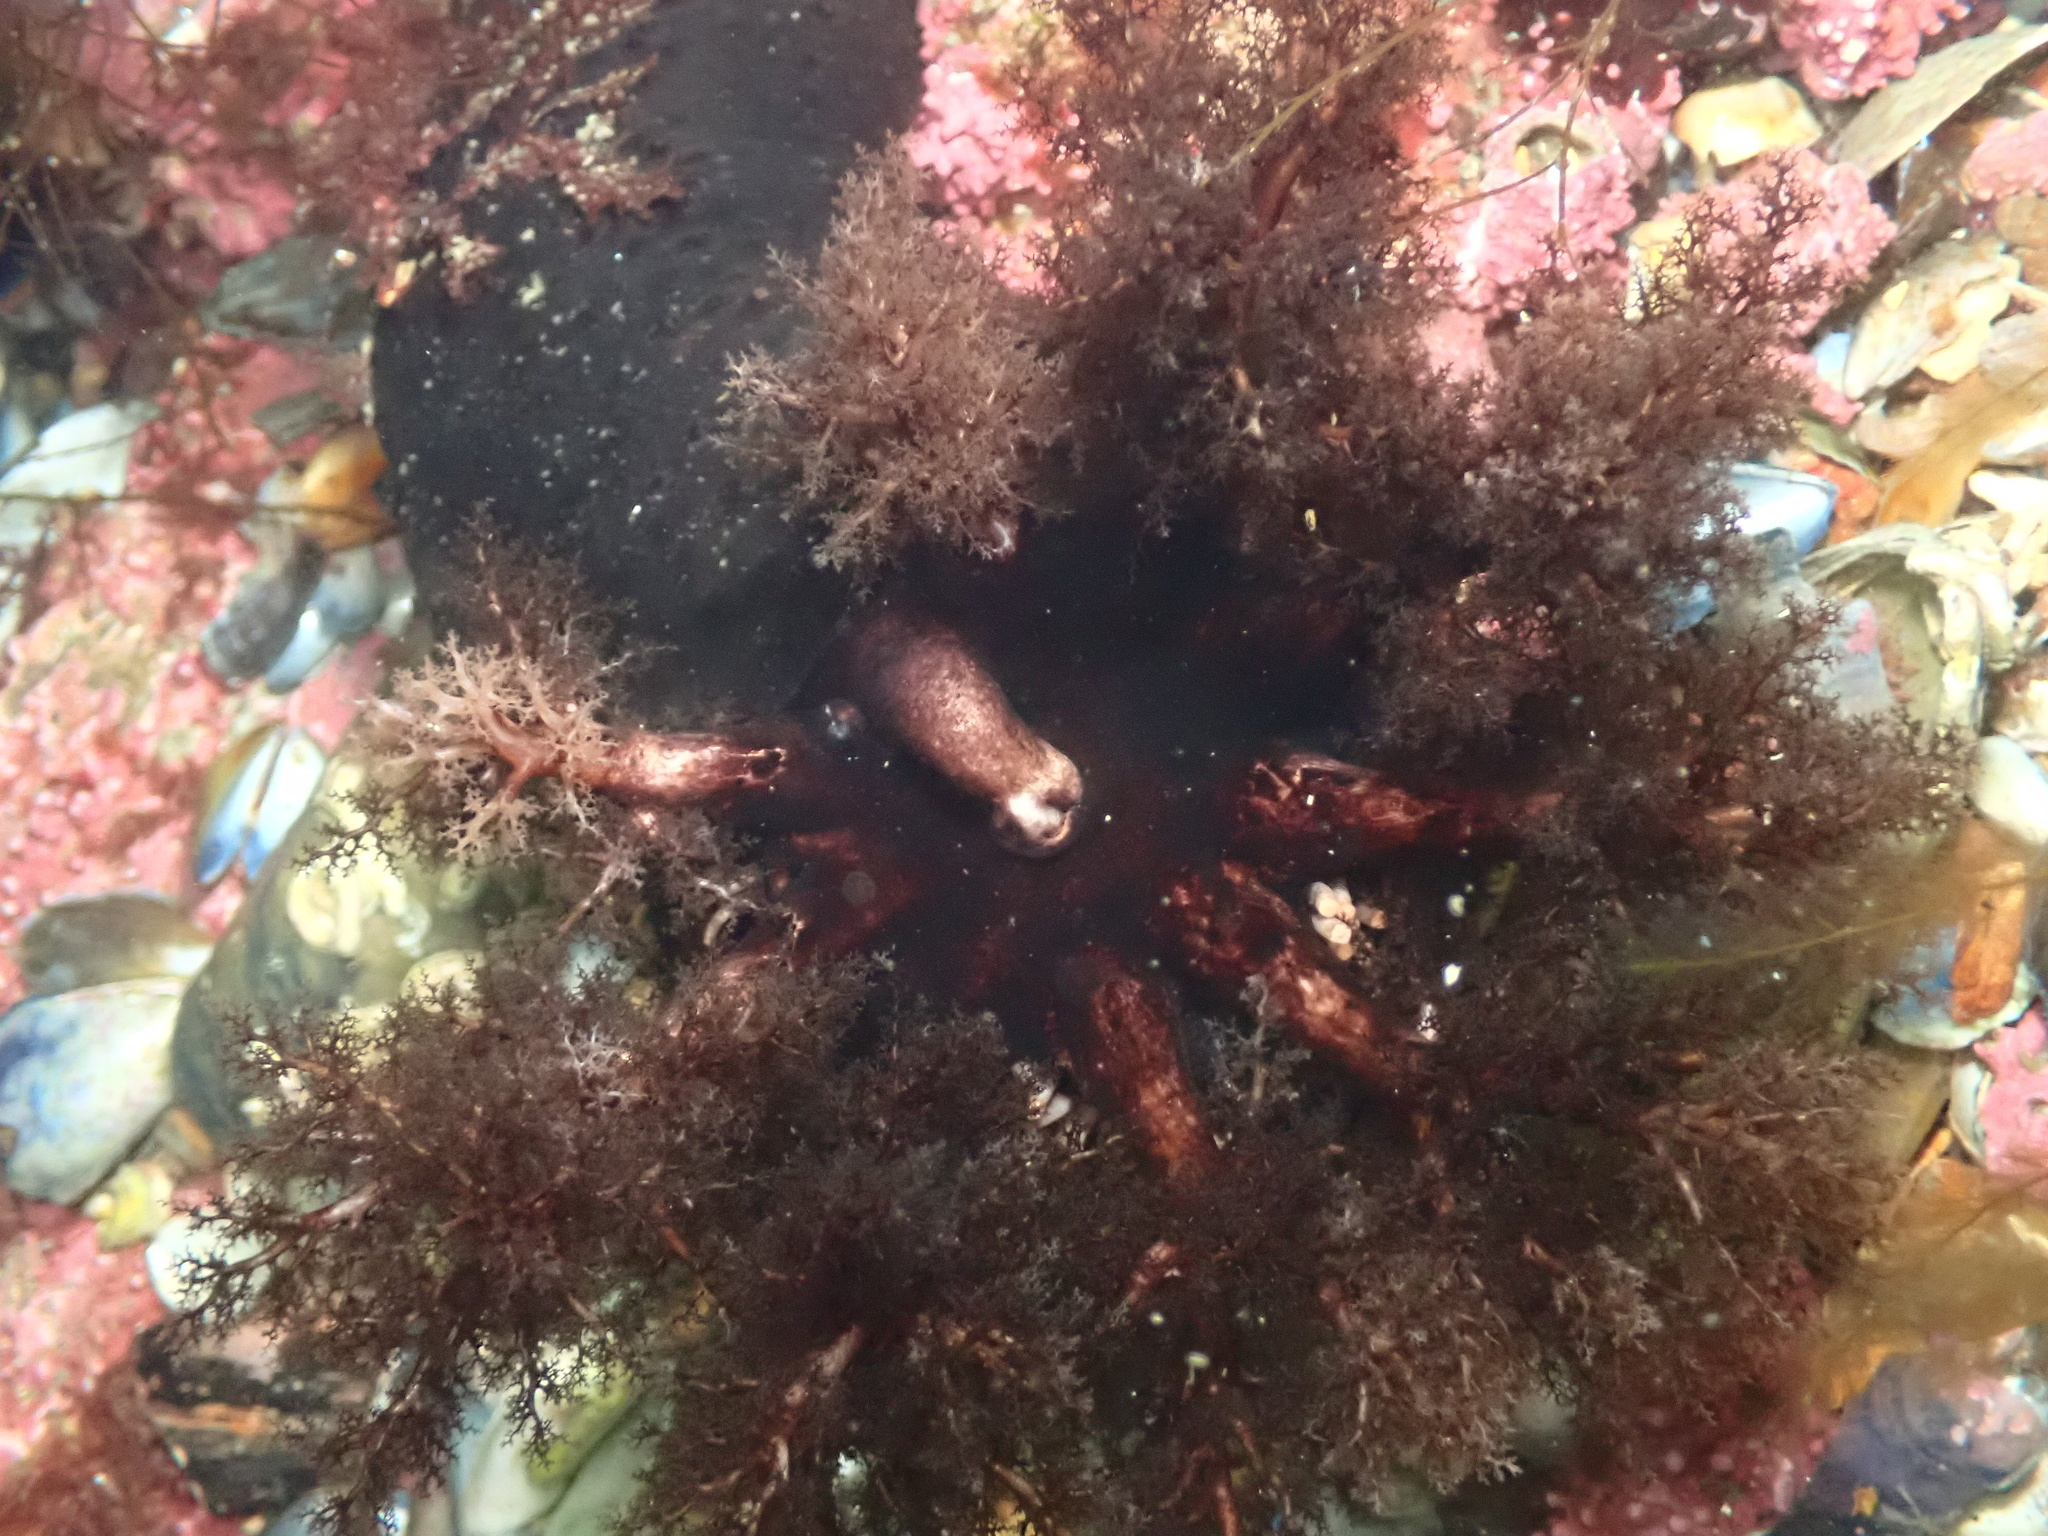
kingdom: Animalia
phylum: Echinodermata
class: Holothuroidea
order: Dendrochirotida
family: Cucumariidae
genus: Cucumaria
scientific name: Cucumaria frondosa
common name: Orange-footed sea cucumber
